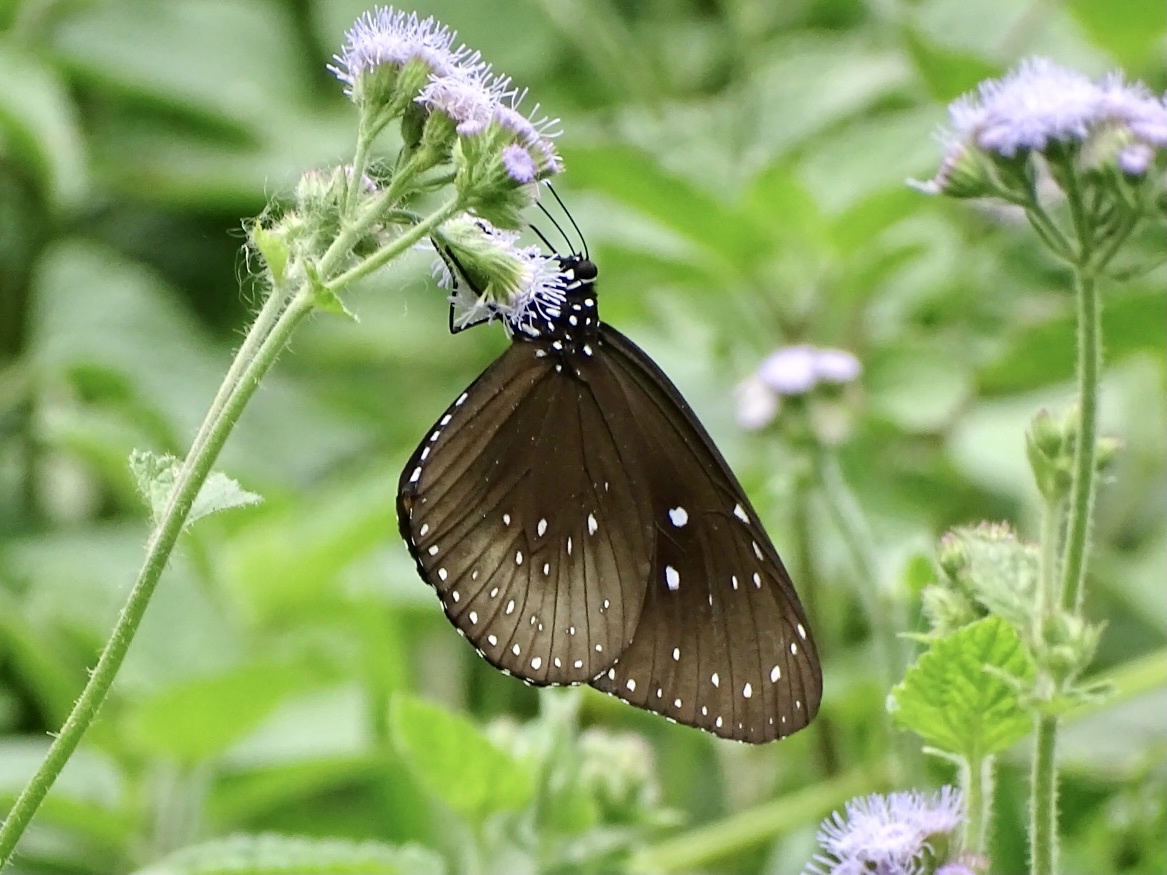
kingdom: Animalia
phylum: Arthropoda
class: Insecta
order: Lepidoptera
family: Nymphalidae
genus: Euploea
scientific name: Euploea midamus
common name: Blue-spotted crow butterfly
